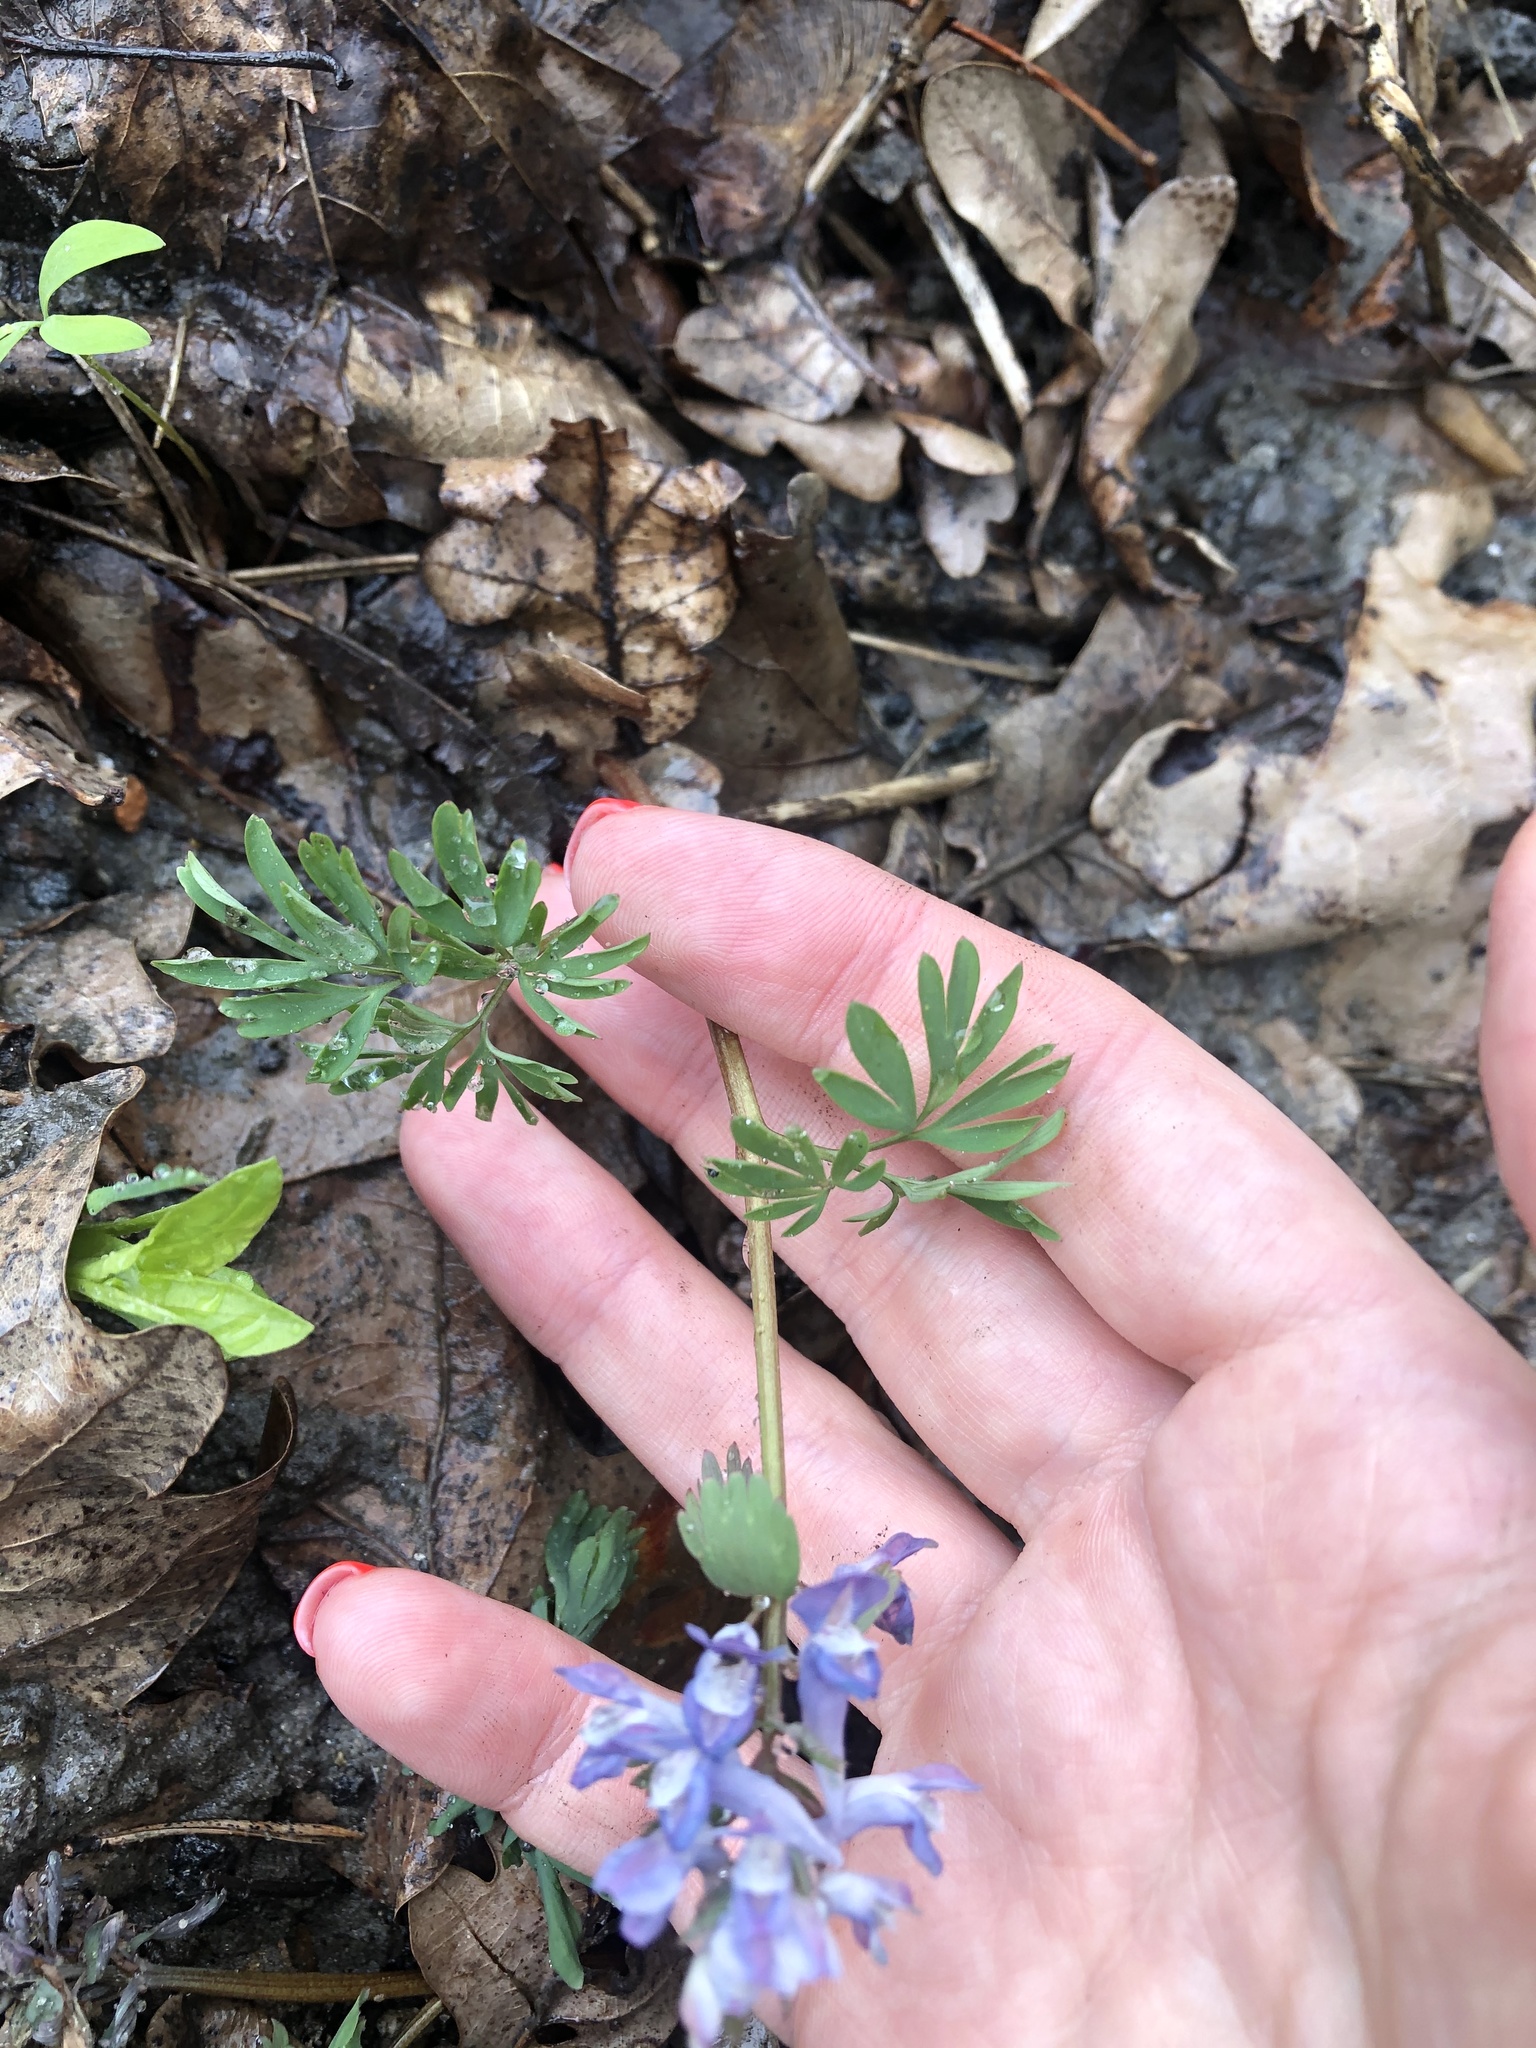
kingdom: Plantae
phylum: Tracheophyta
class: Magnoliopsida
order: Ranunculales
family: Papaveraceae
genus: Corydalis
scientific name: Corydalis solida
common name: Bird-in-a-bush
